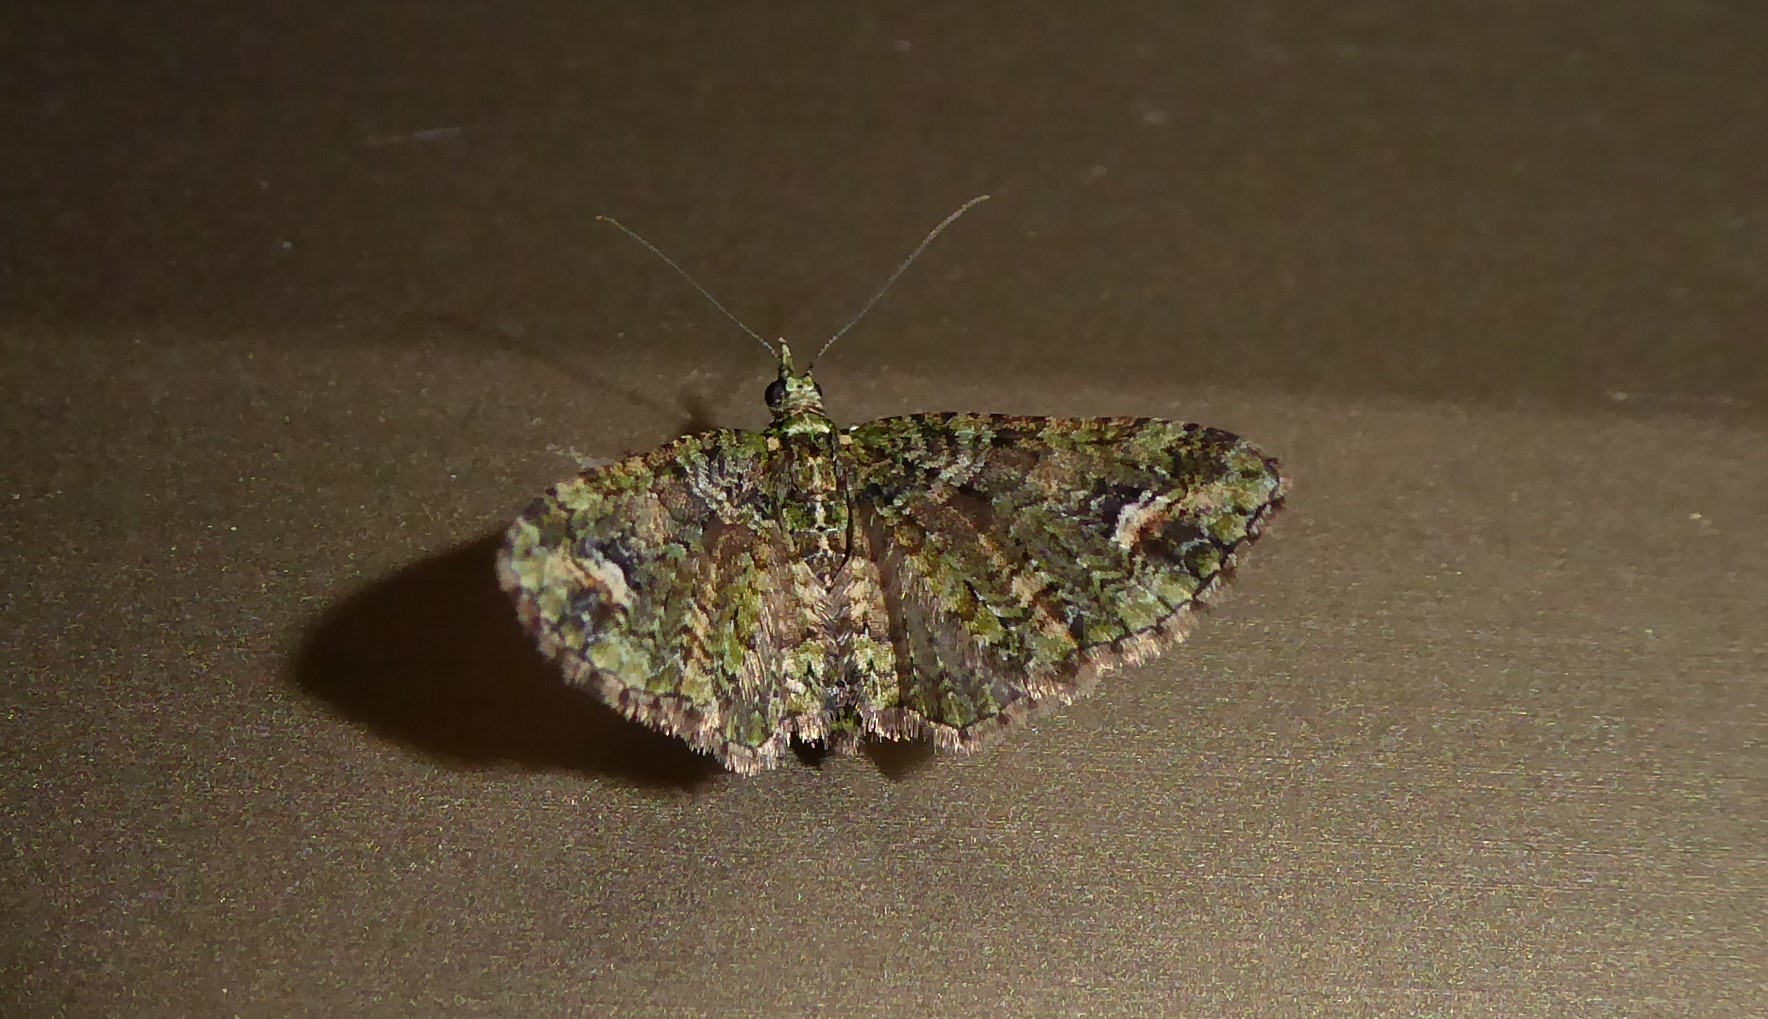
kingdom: Animalia
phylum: Arthropoda
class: Insecta
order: Lepidoptera
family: Geometridae
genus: Idaea
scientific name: Idaea mutanda
